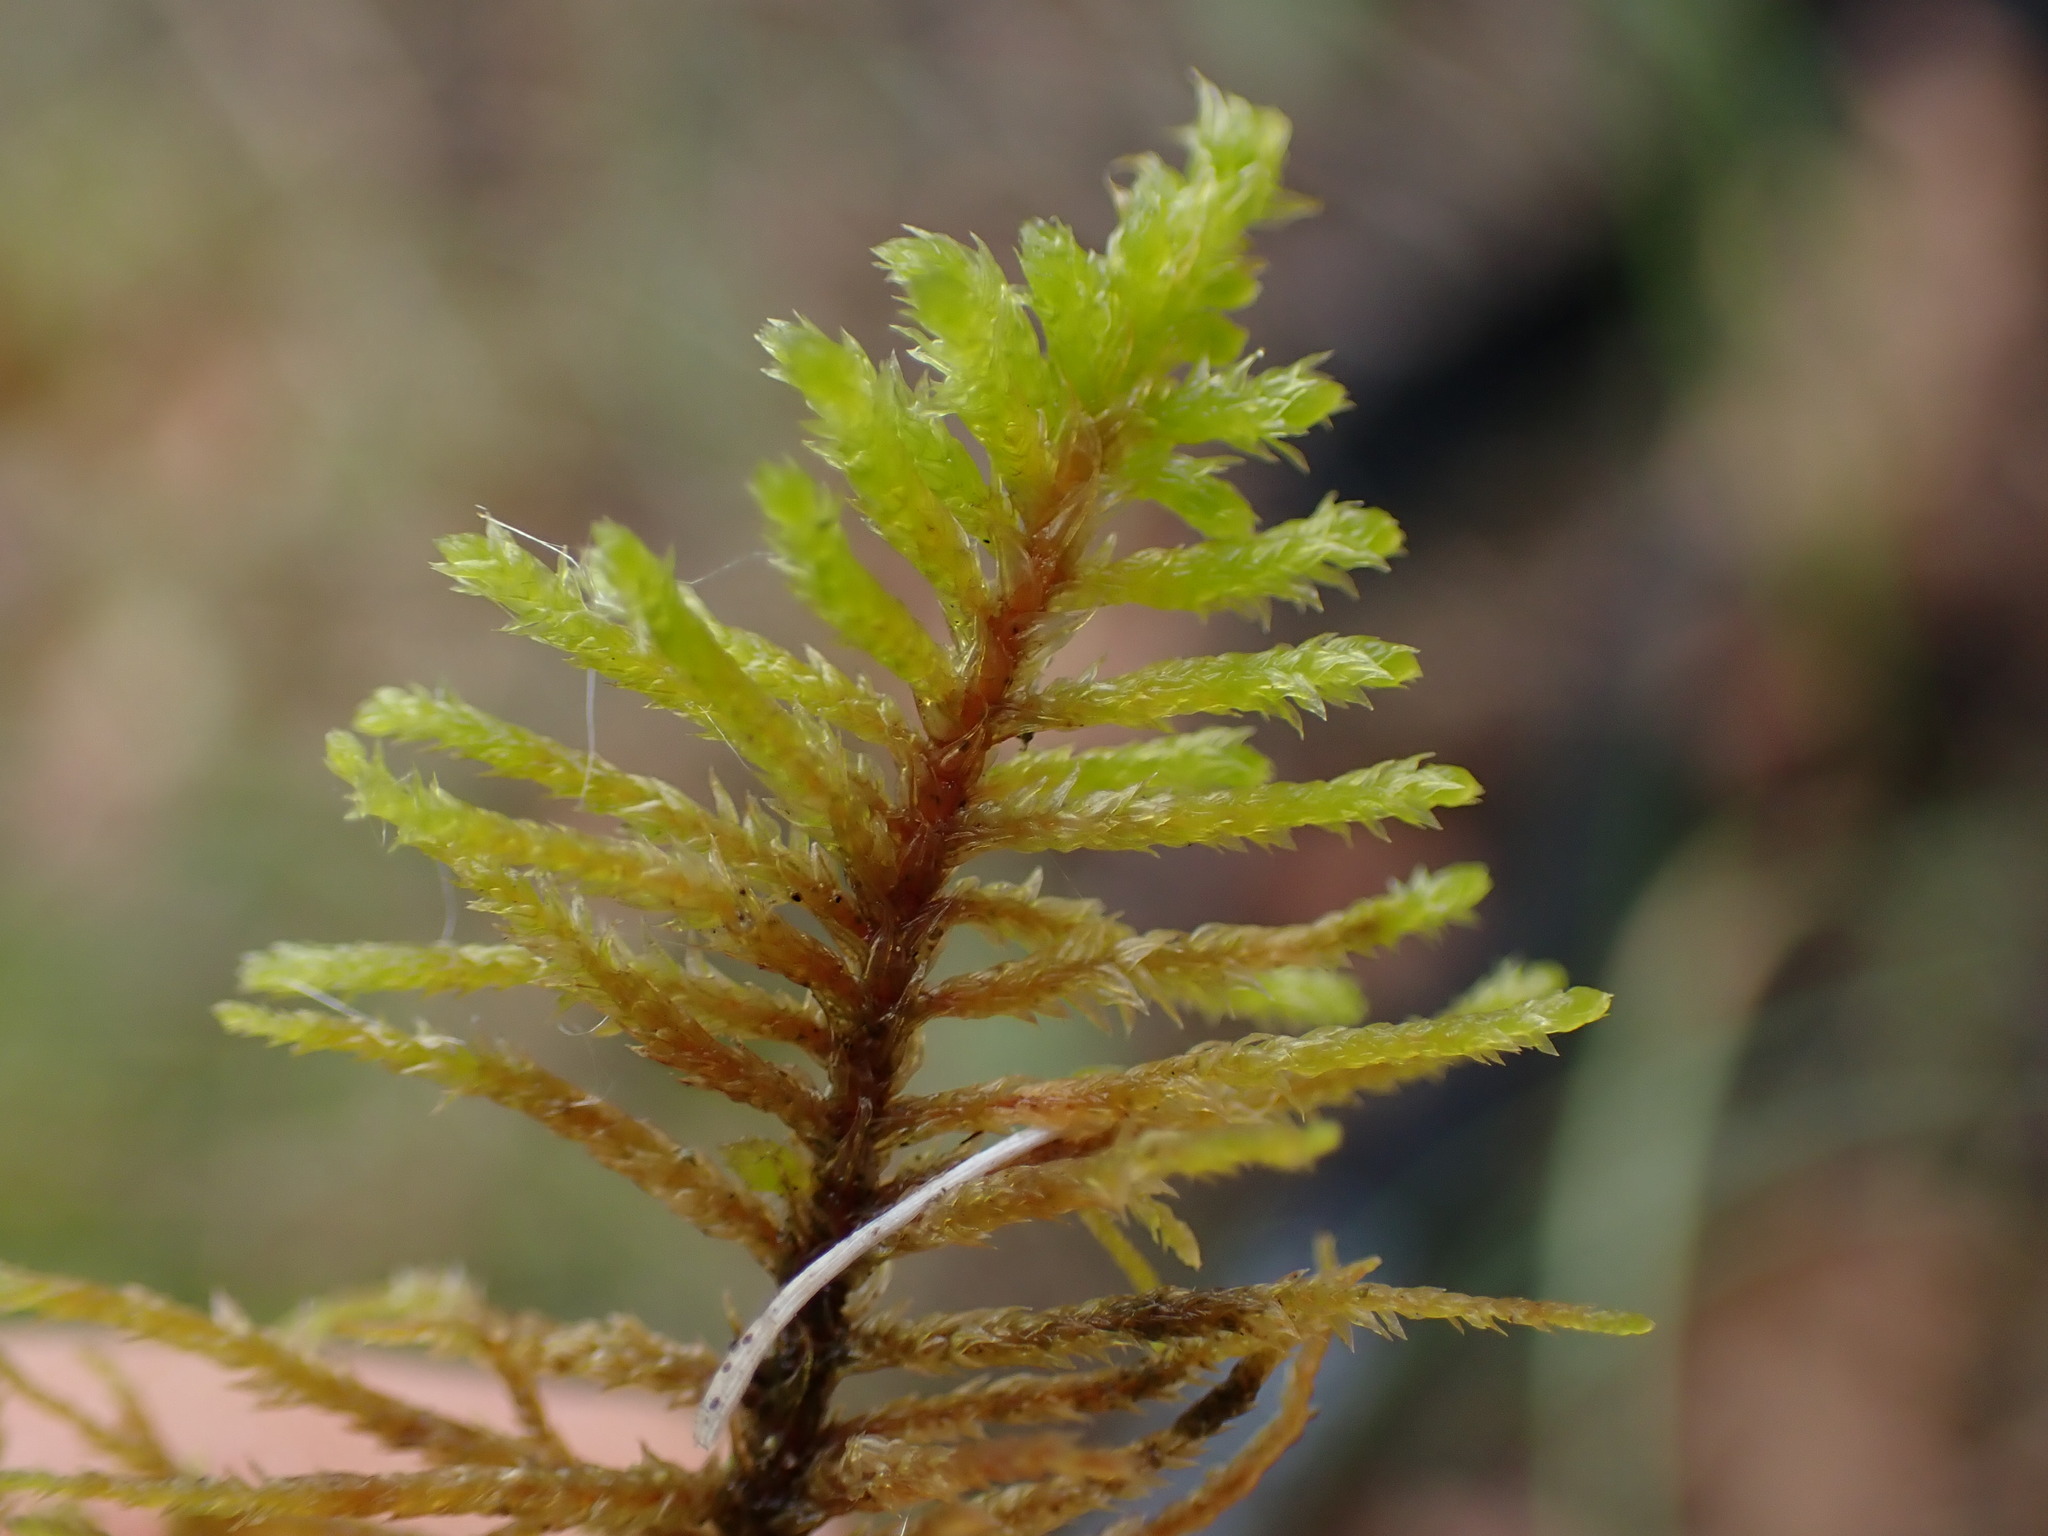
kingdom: Plantae
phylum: Bryophyta
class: Bryopsida
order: Hypnales
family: Thuidiaceae
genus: Abietinella
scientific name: Abietinella abietina
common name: Wiry fern moss
